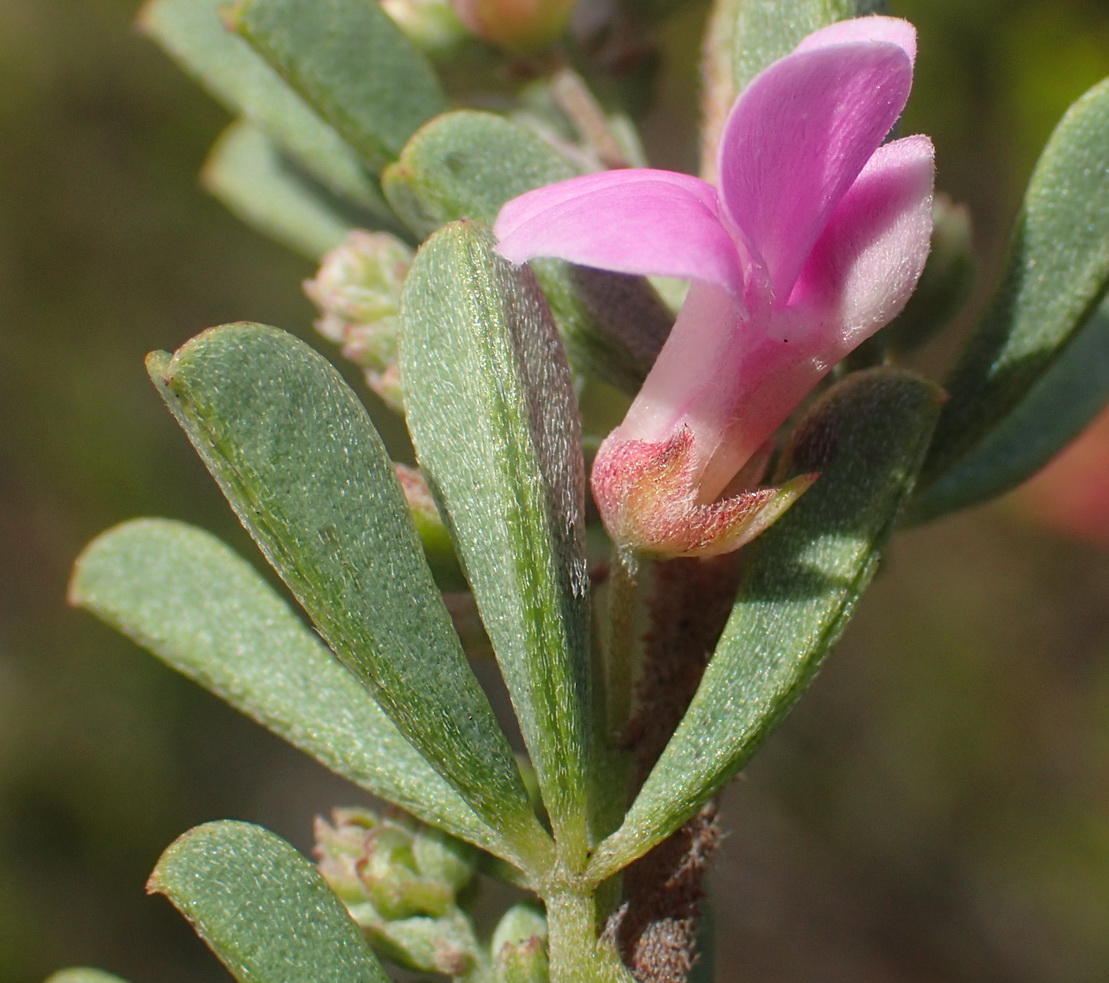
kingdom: Plantae
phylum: Tracheophyta
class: Magnoliopsida
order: Fabales
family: Fabaceae
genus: Indigofera
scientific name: Indigofera flabellata
